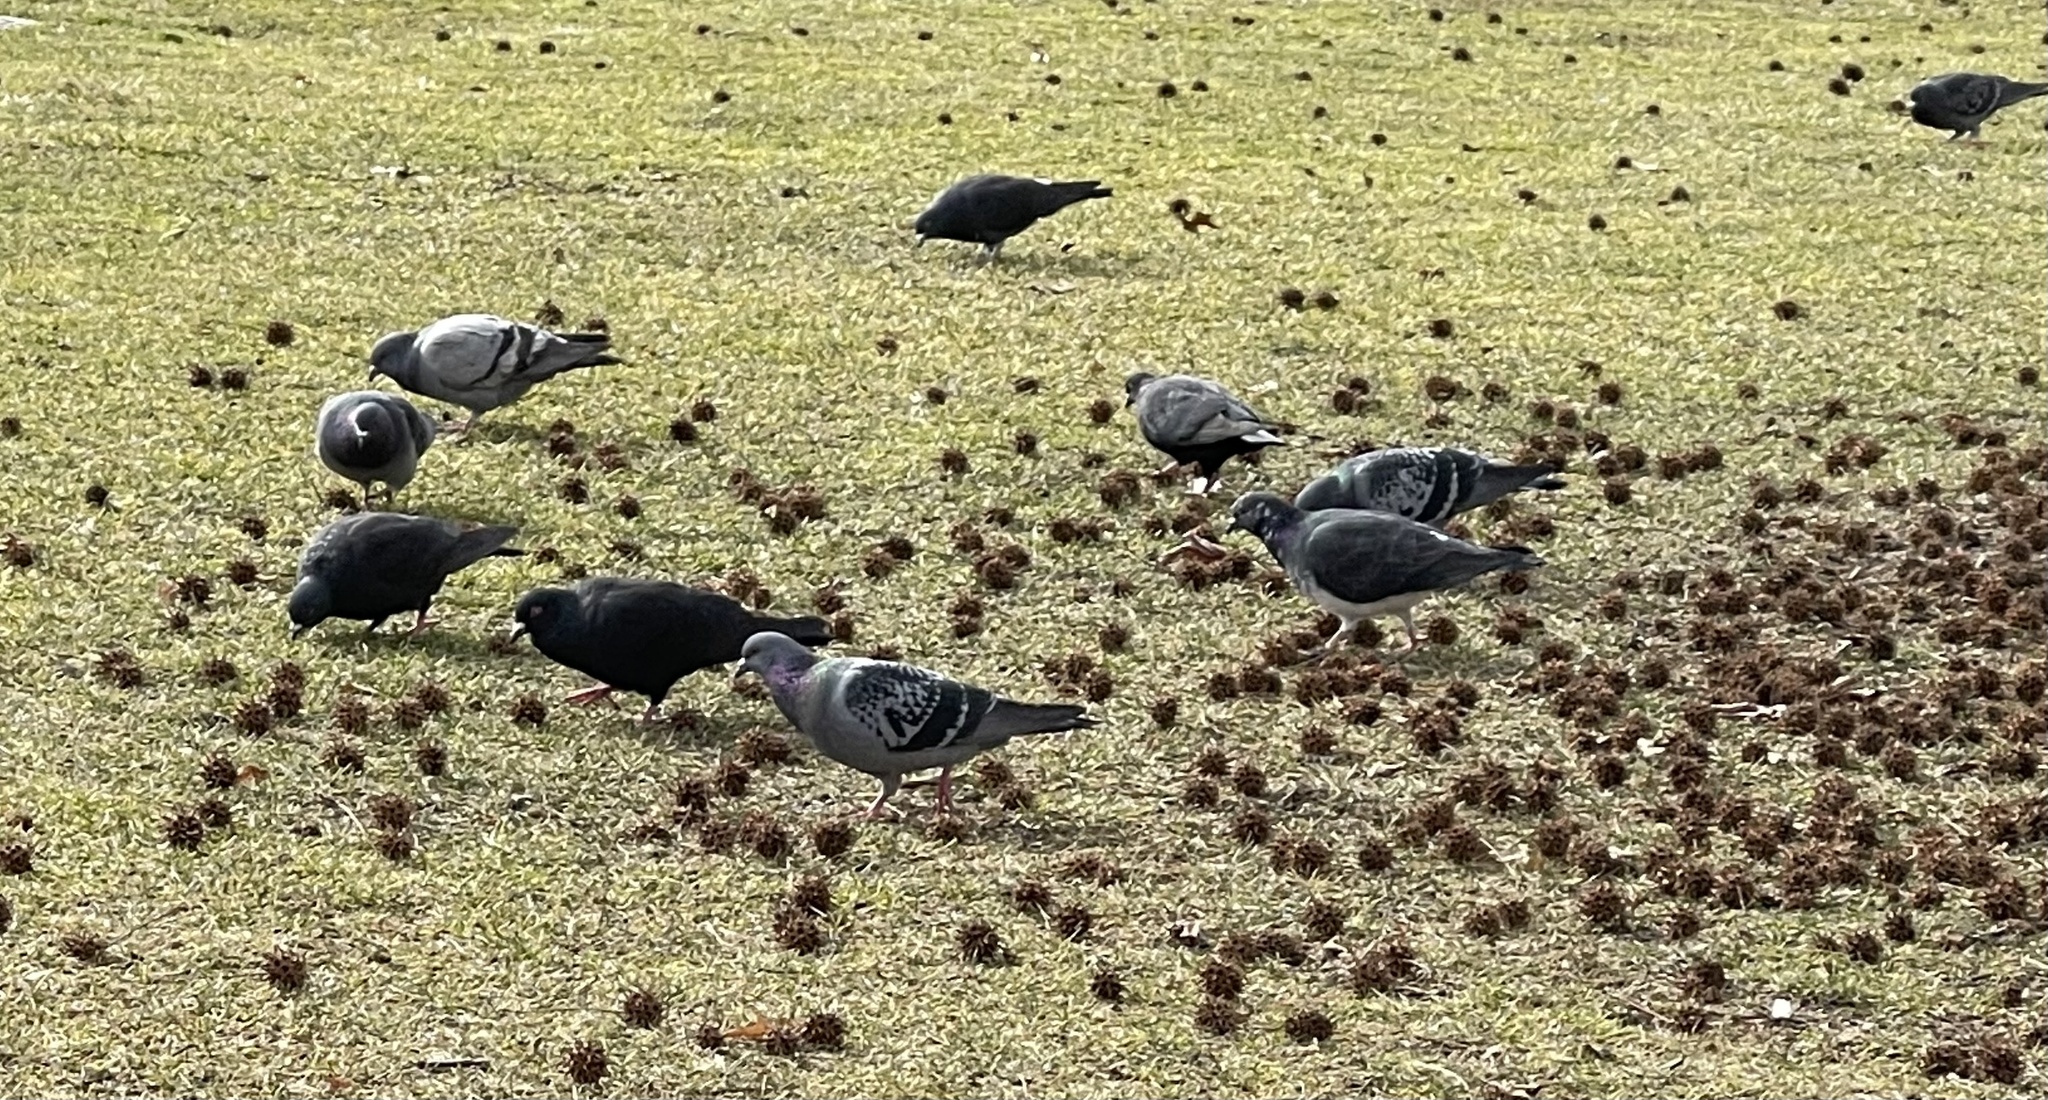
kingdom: Animalia
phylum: Chordata
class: Aves
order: Columbiformes
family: Columbidae
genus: Columba
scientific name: Columba livia
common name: Rock pigeon
